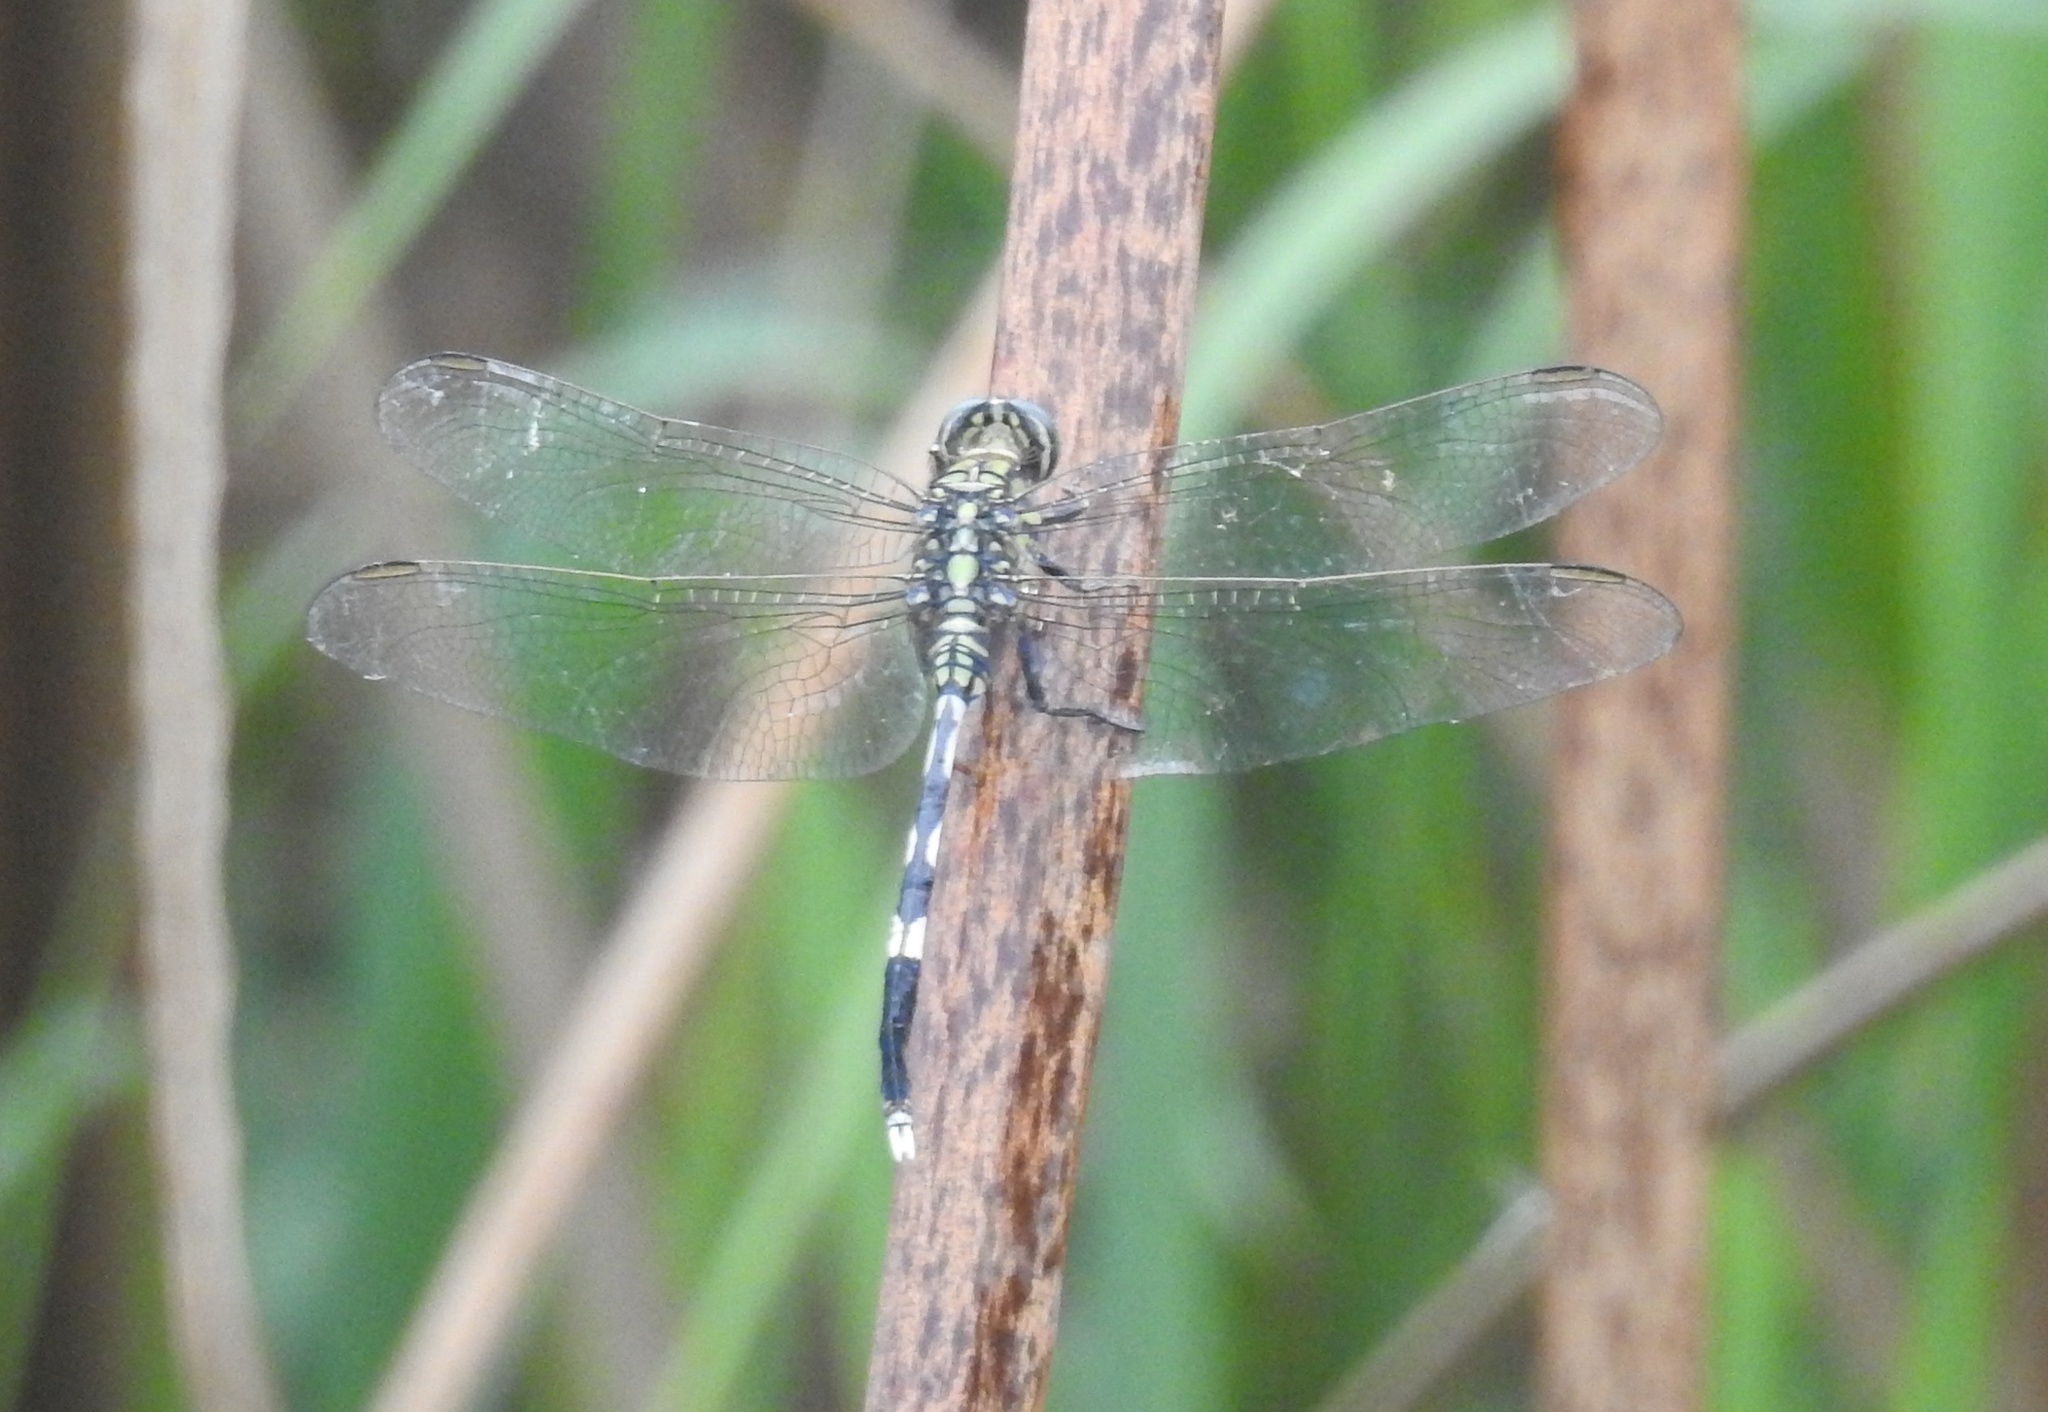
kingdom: Animalia
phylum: Arthropoda
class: Insecta
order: Odonata
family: Libellulidae
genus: Orthetrum
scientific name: Orthetrum sabina
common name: Slender skimmer
